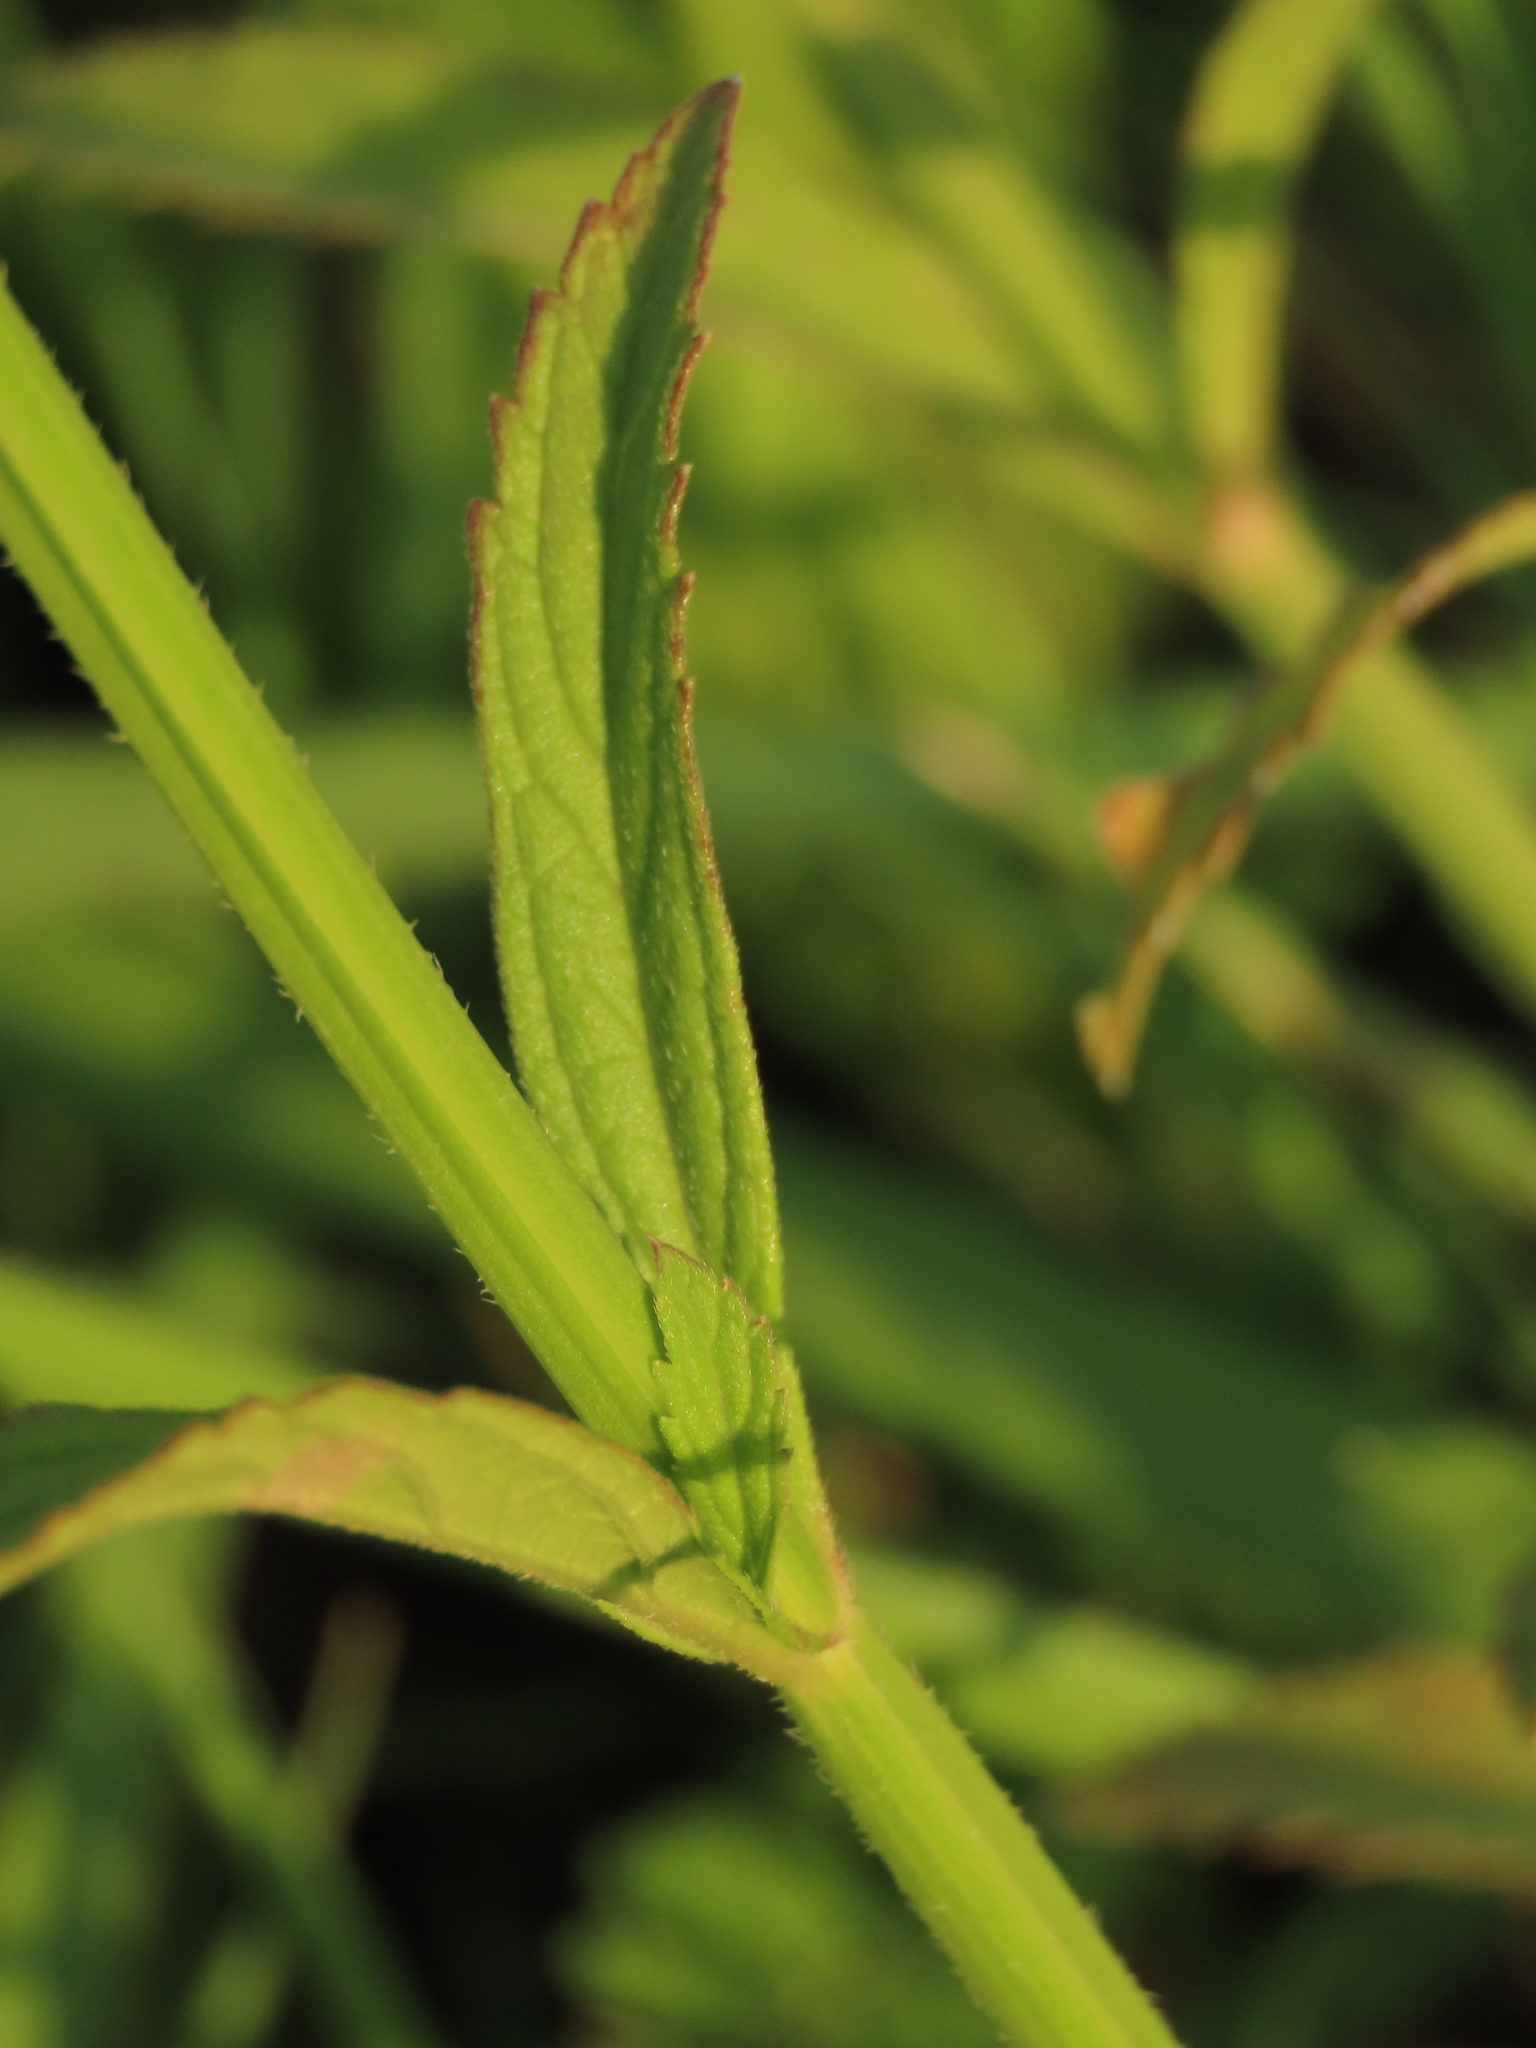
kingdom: Plantae
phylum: Tracheophyta
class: Magnoliopsida
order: Lamiales
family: Verbenaceae
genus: Verbena
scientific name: Verbena brasiliensis
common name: Brazilian vervain
